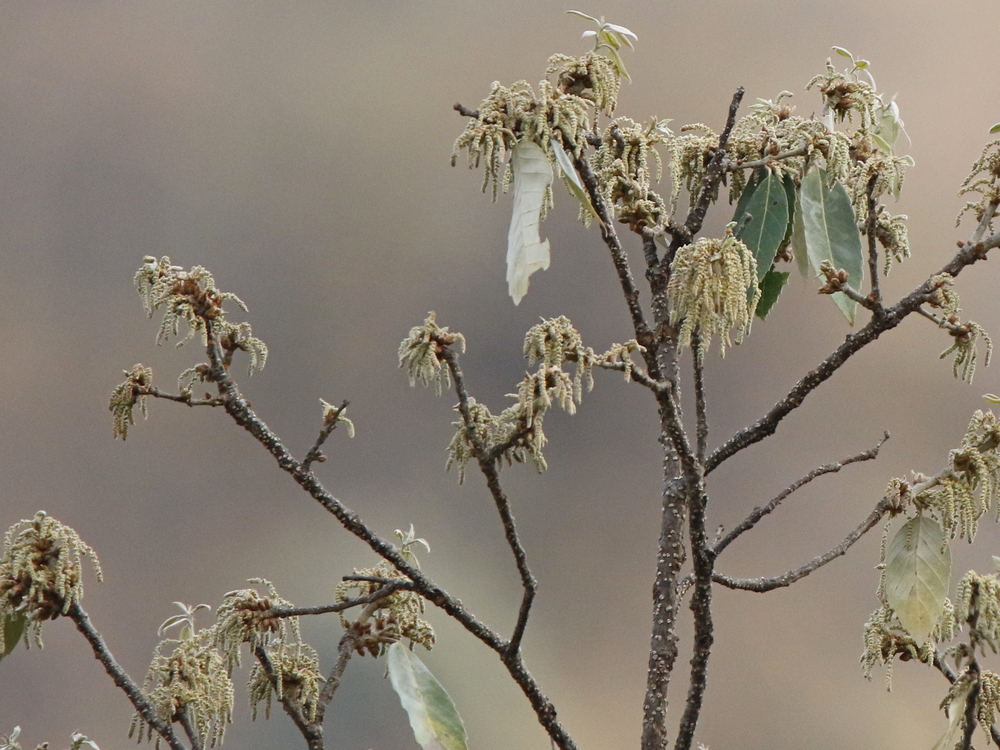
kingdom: Plantae
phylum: Tracheophyta
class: Magnoliopsida
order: Fagales
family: Fagaceae
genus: Quercus
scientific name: Quercus leucotrichophora
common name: Banj oak
